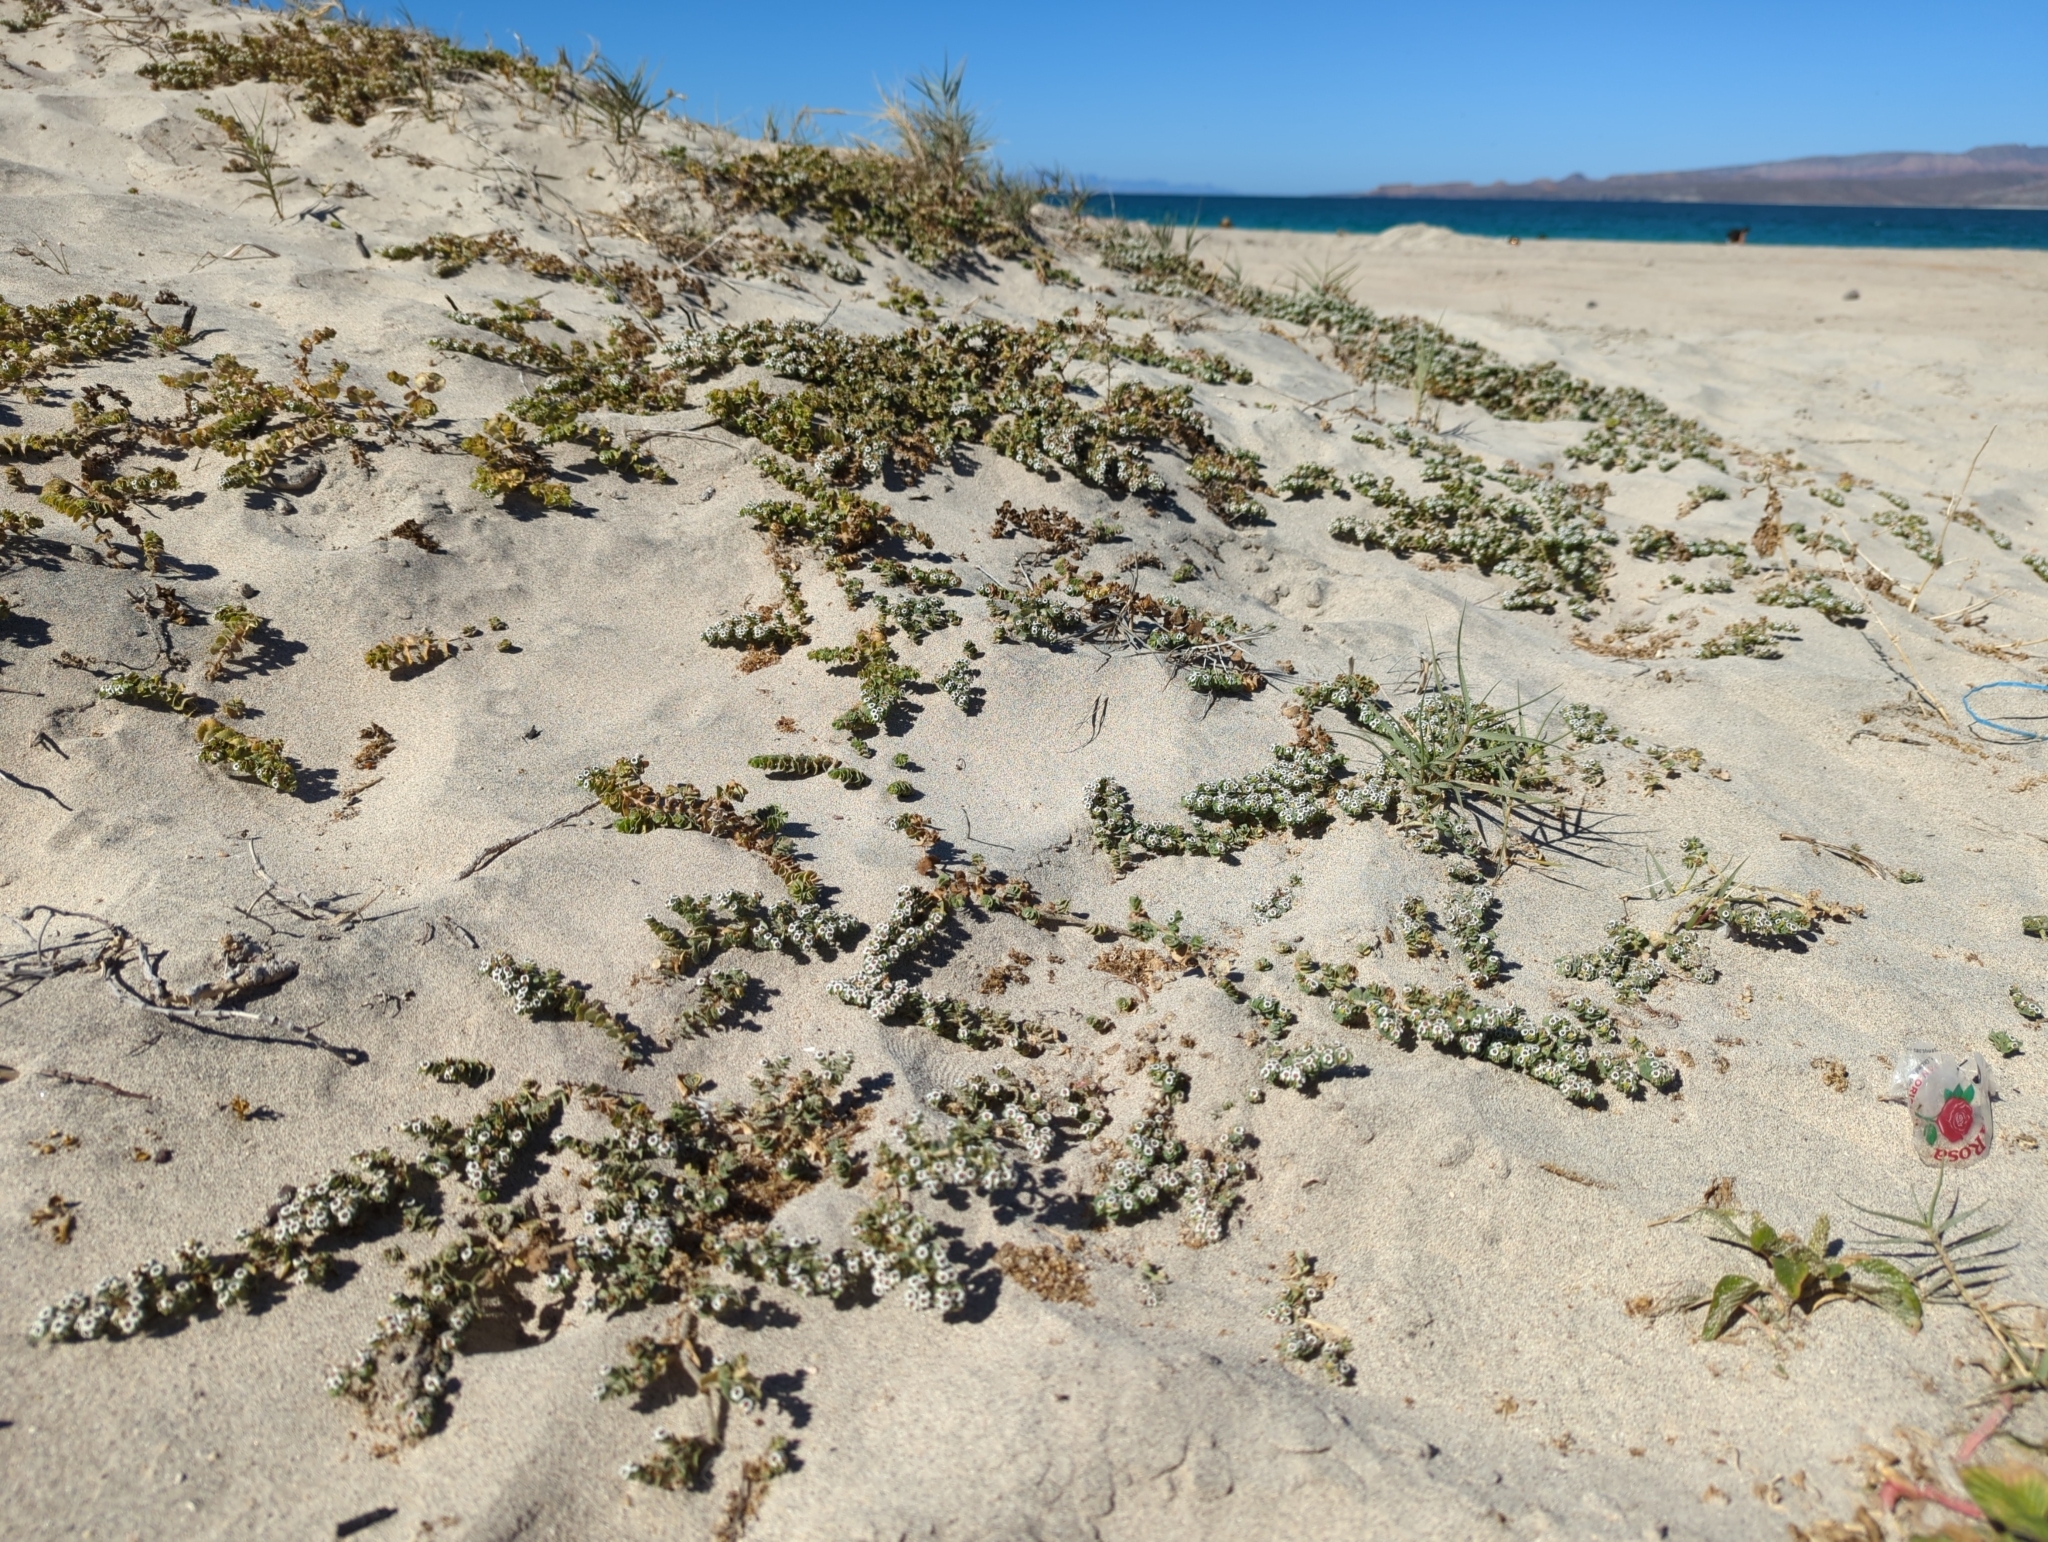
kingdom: Plantae
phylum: Tracheophyta
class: Magnoliopsida
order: Malpighiales
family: Euphorbiaceae
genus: Euphorbia
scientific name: Euphorbia leucophylla
